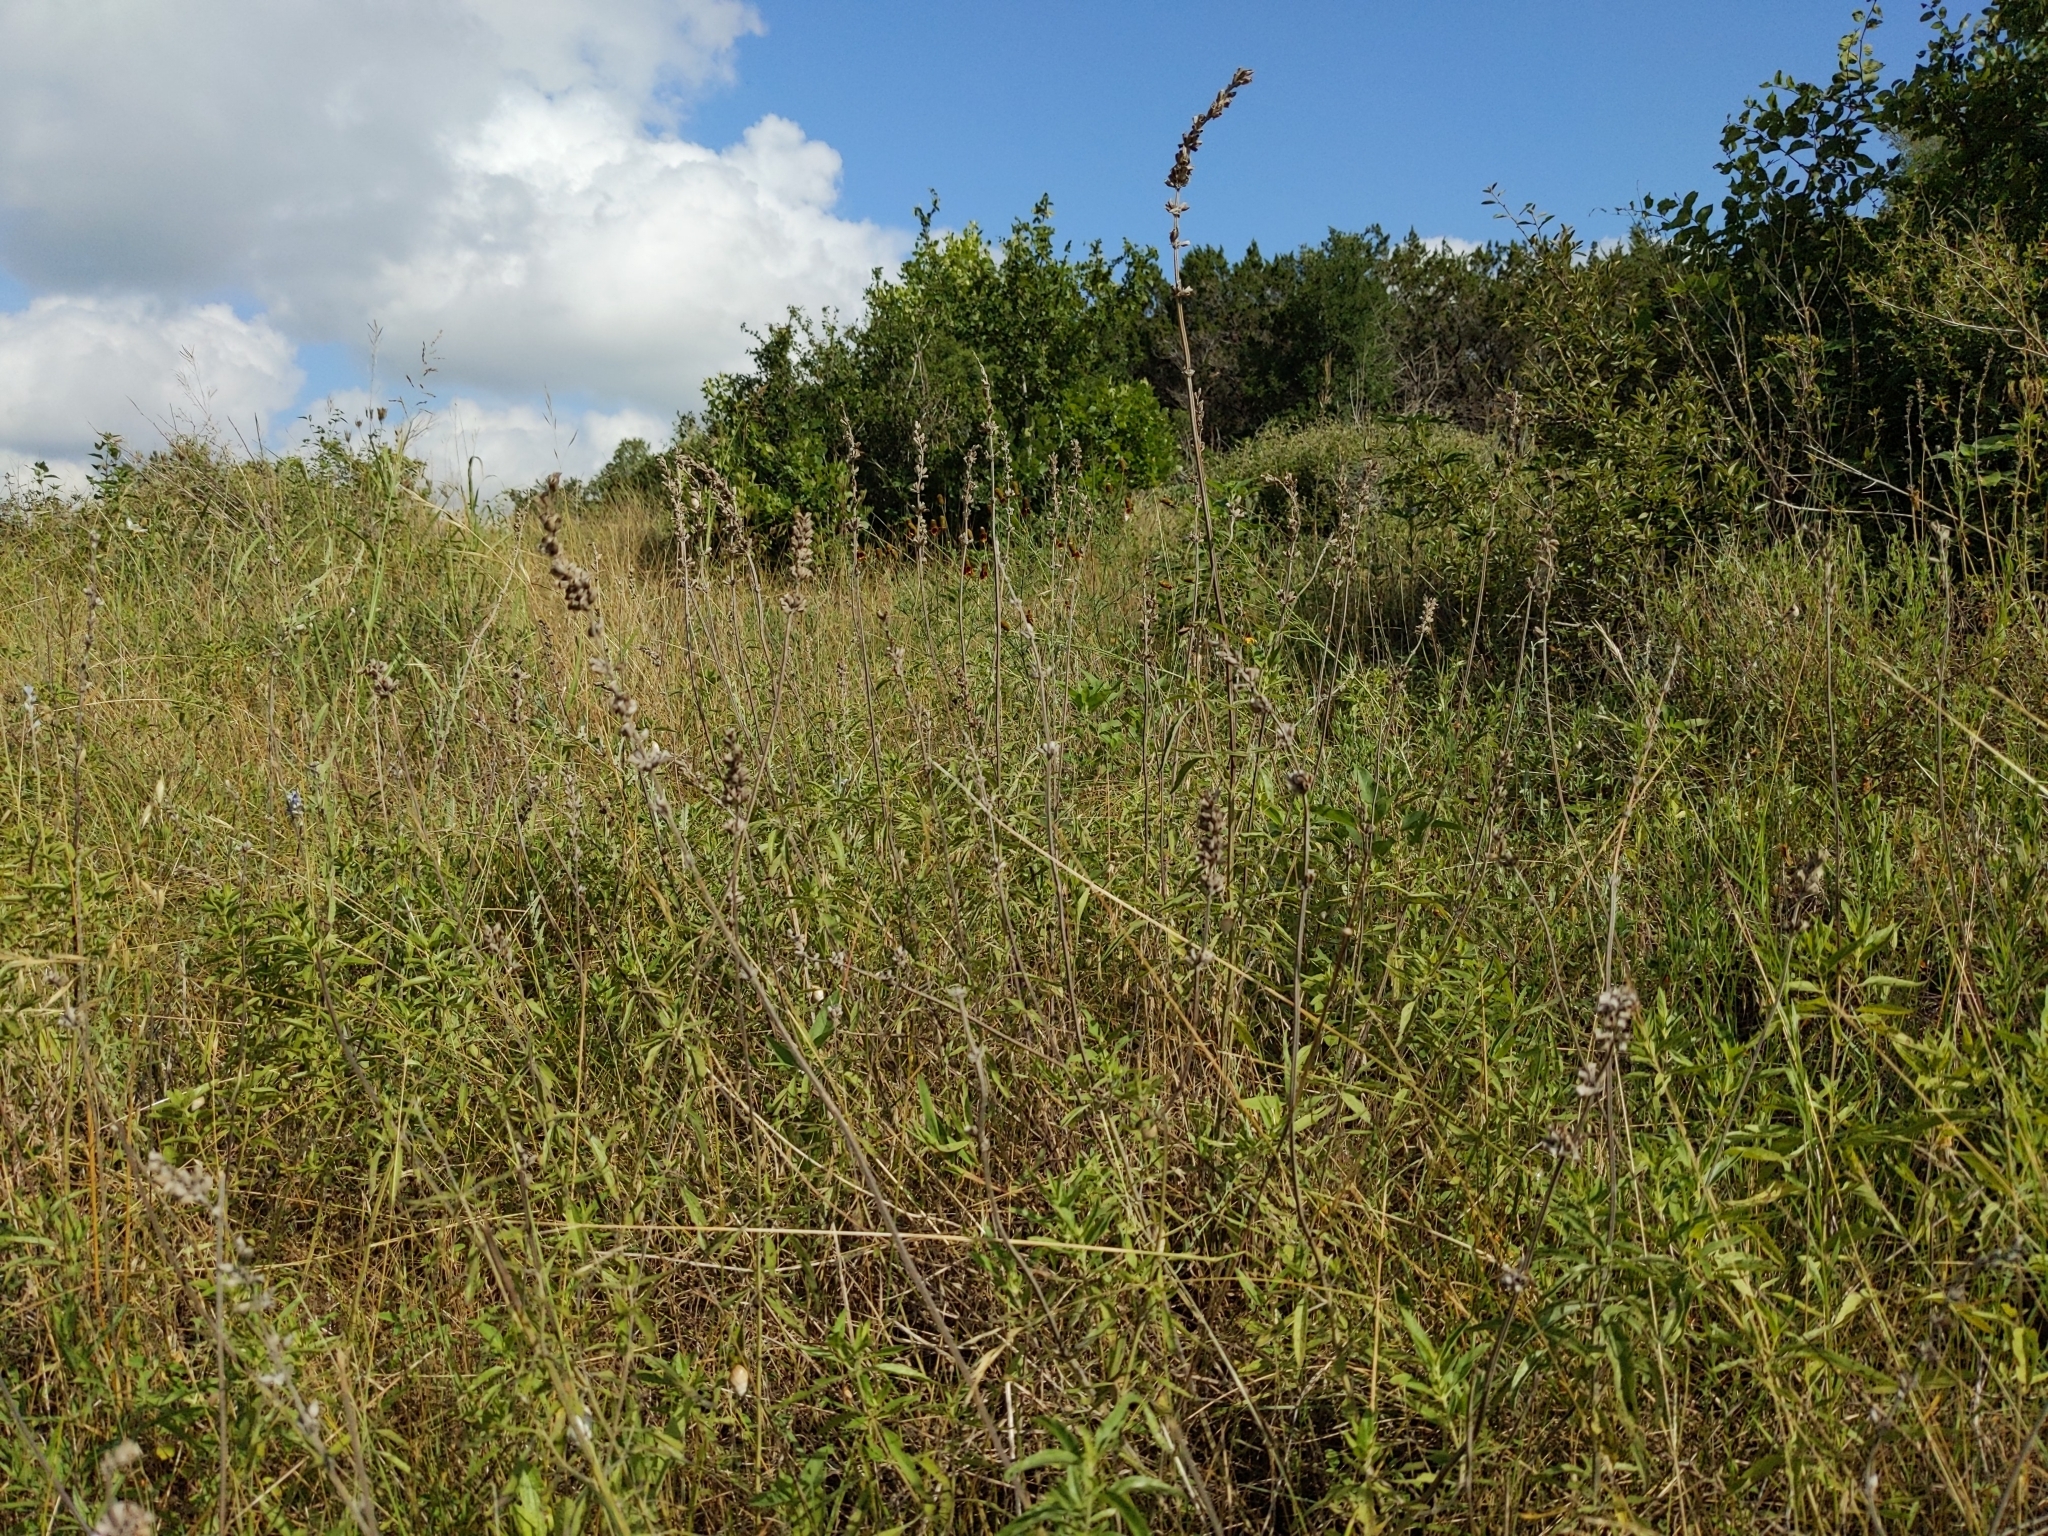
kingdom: Plantae
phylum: Tracheophyta
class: Magnoliopsida
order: Lamiales
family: Lamiaceae
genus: Salvia
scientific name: Salvia farinacea
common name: Mealy sage
